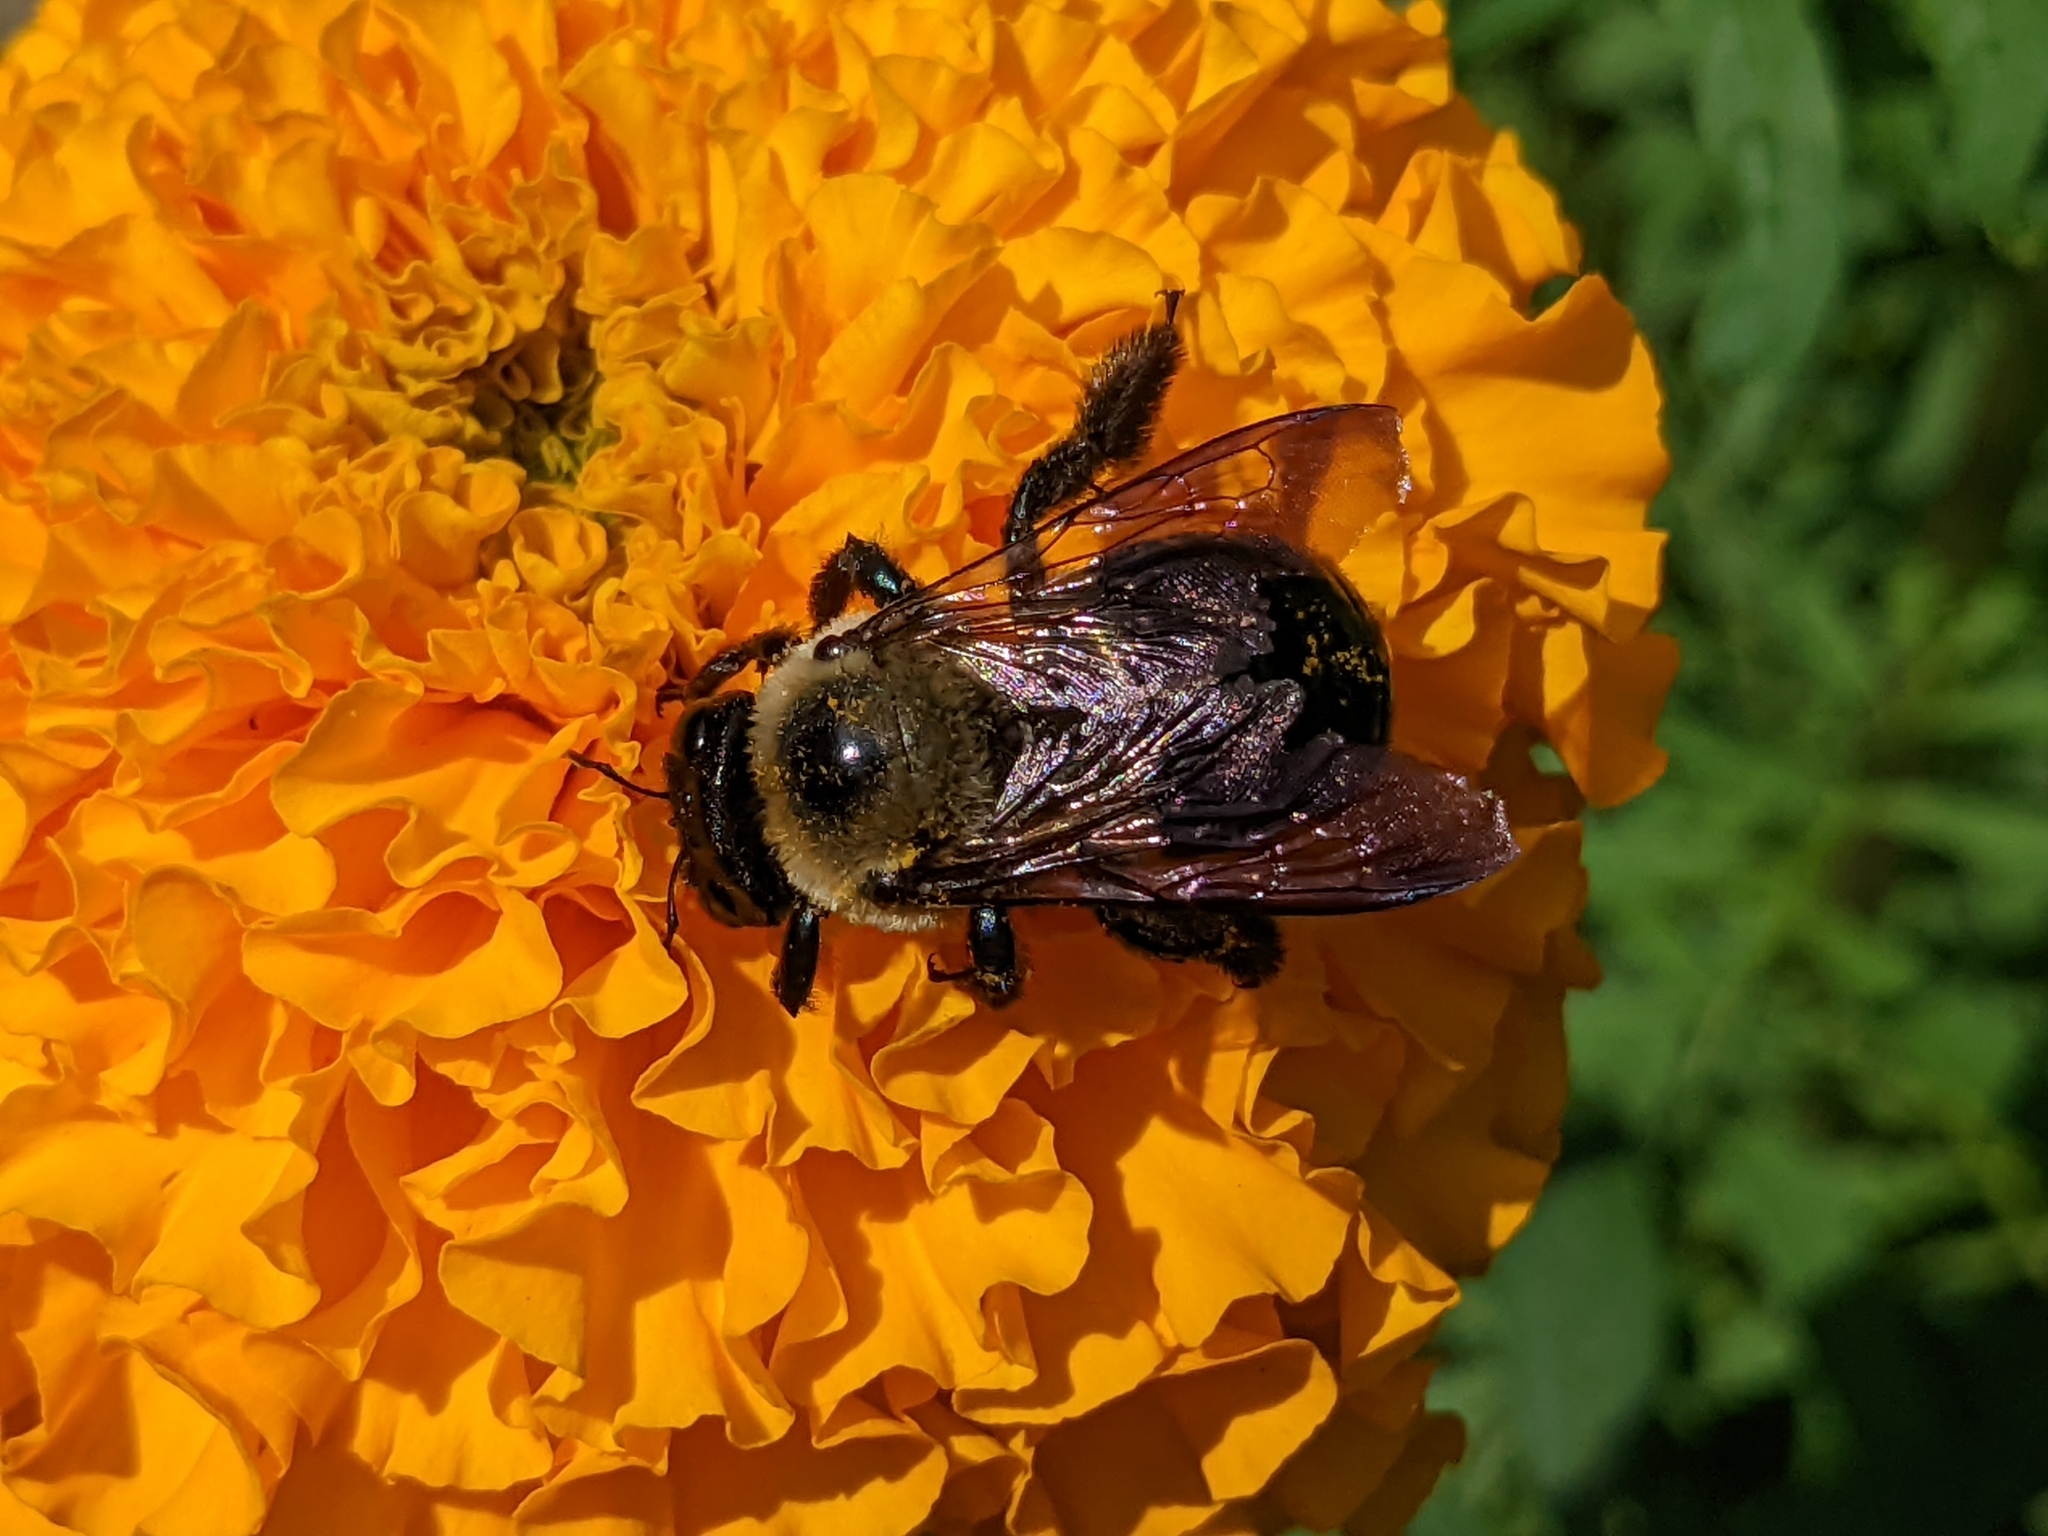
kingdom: Animalia
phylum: Arthropoda
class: Insecta
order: Hymenoptera
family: Apidae
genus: Xylocopa
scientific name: Xylocopa virginica
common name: Carpenter bee
